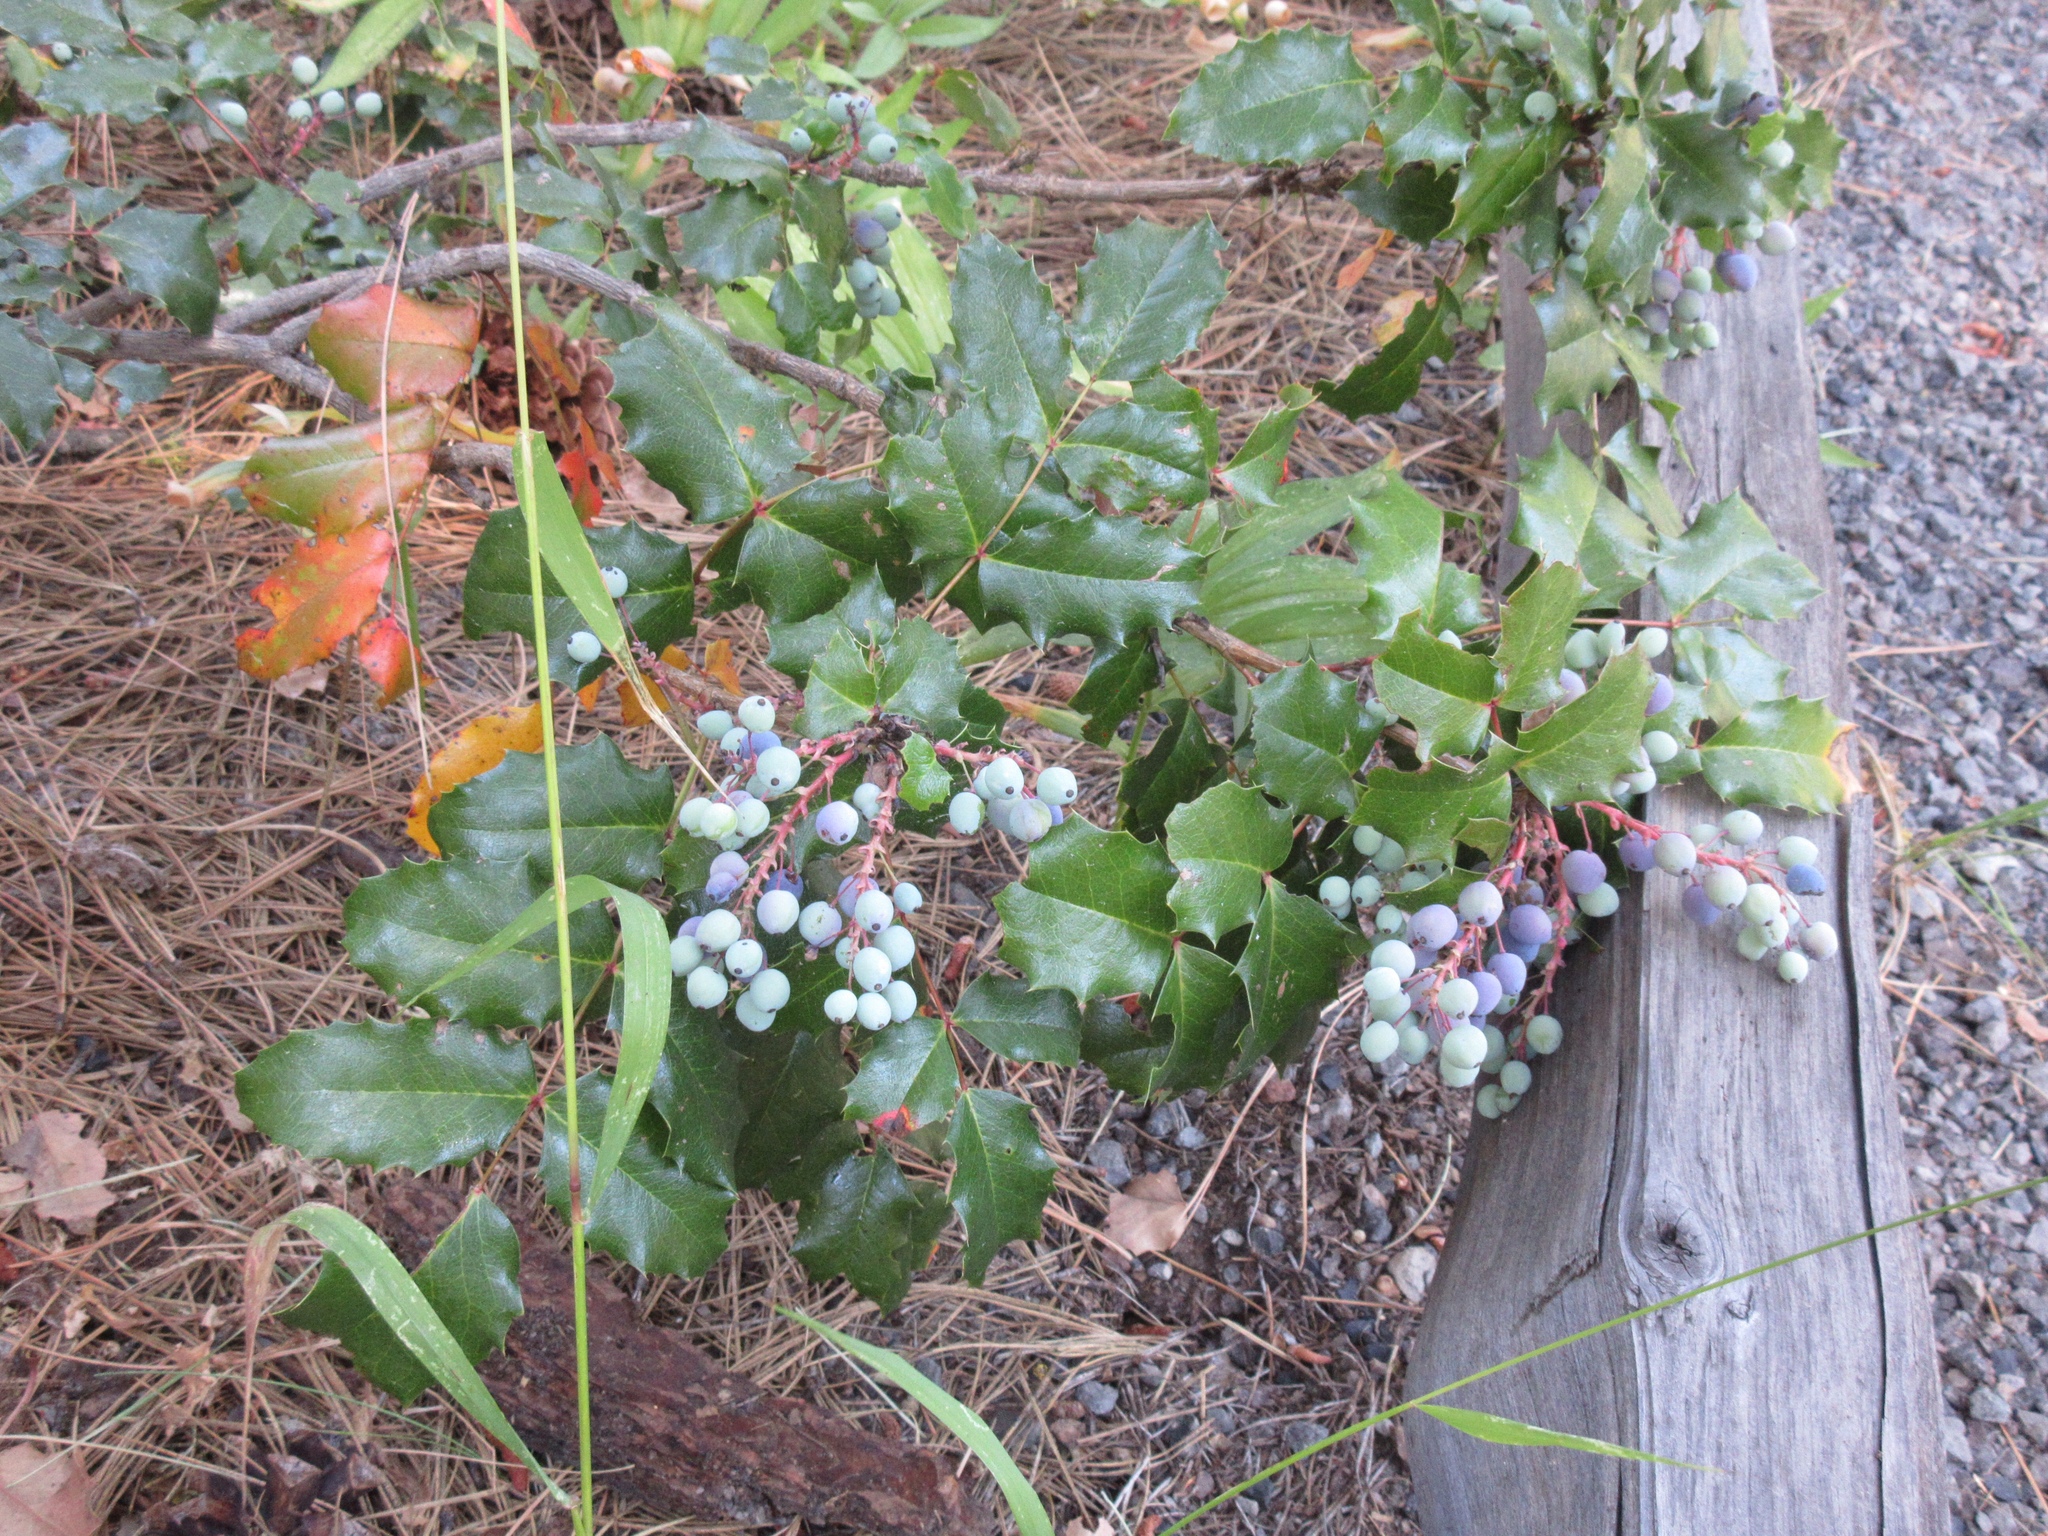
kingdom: Plantae
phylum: Tracheophyta
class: Magnoliopsida
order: Ranunculales
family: Berberidaceae
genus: Mahonia
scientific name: Mahonia aquifolium
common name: Oregon-grape
